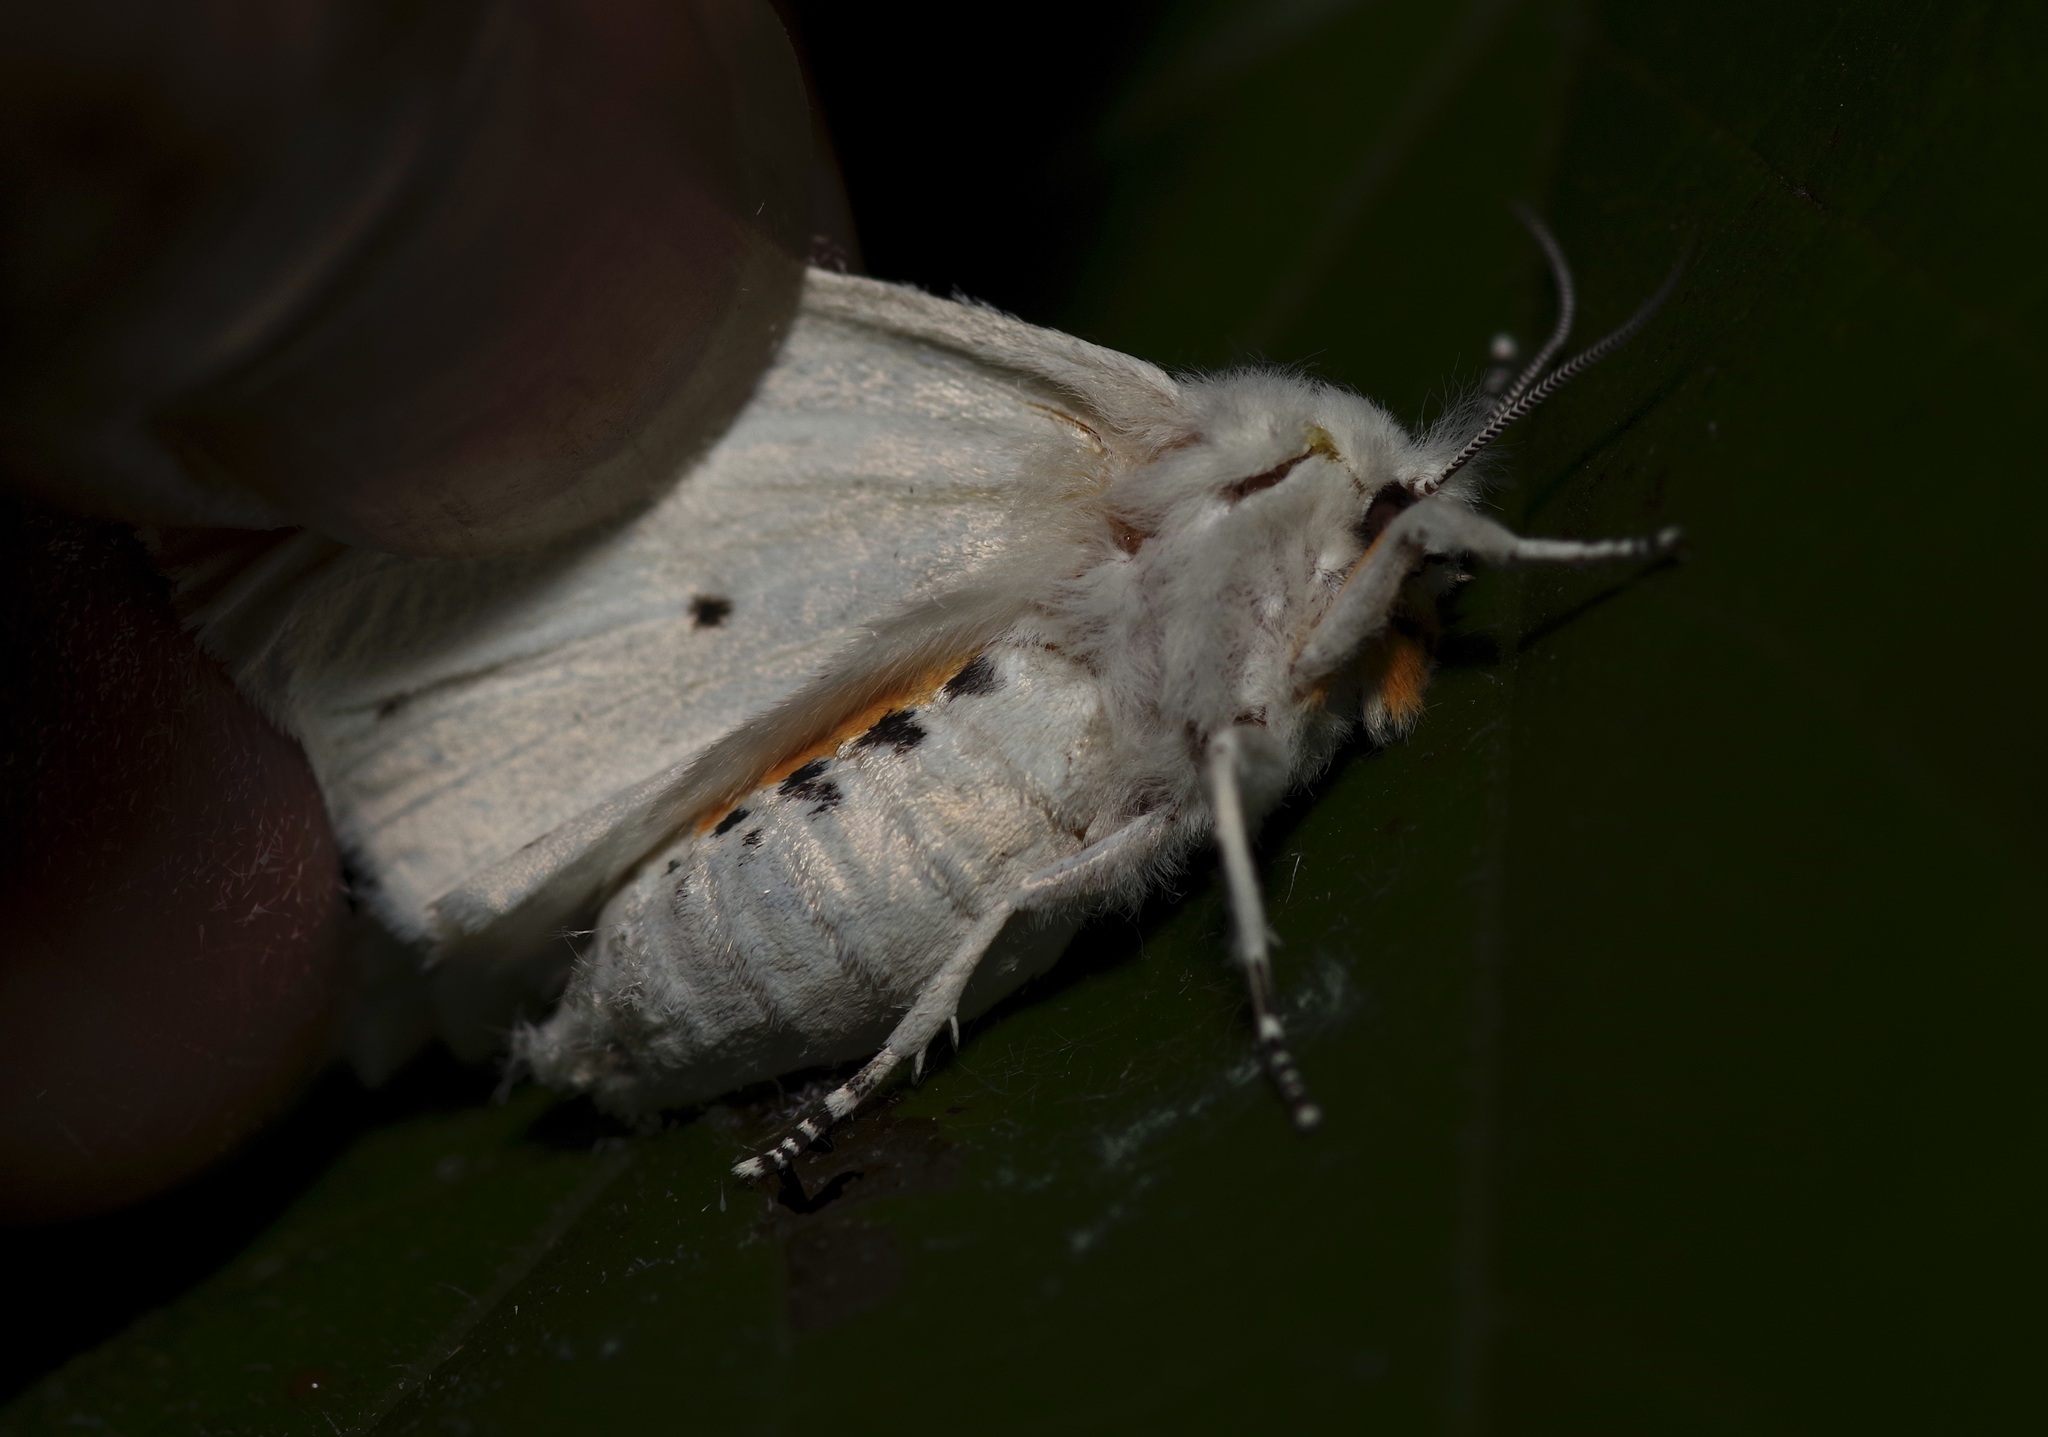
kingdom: Animalia
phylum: Arthropoda
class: Insecta
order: Lepidoptera
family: Erebidae
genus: Spilosoma
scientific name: Spilosoma virginica
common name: Virginia tiger moth
